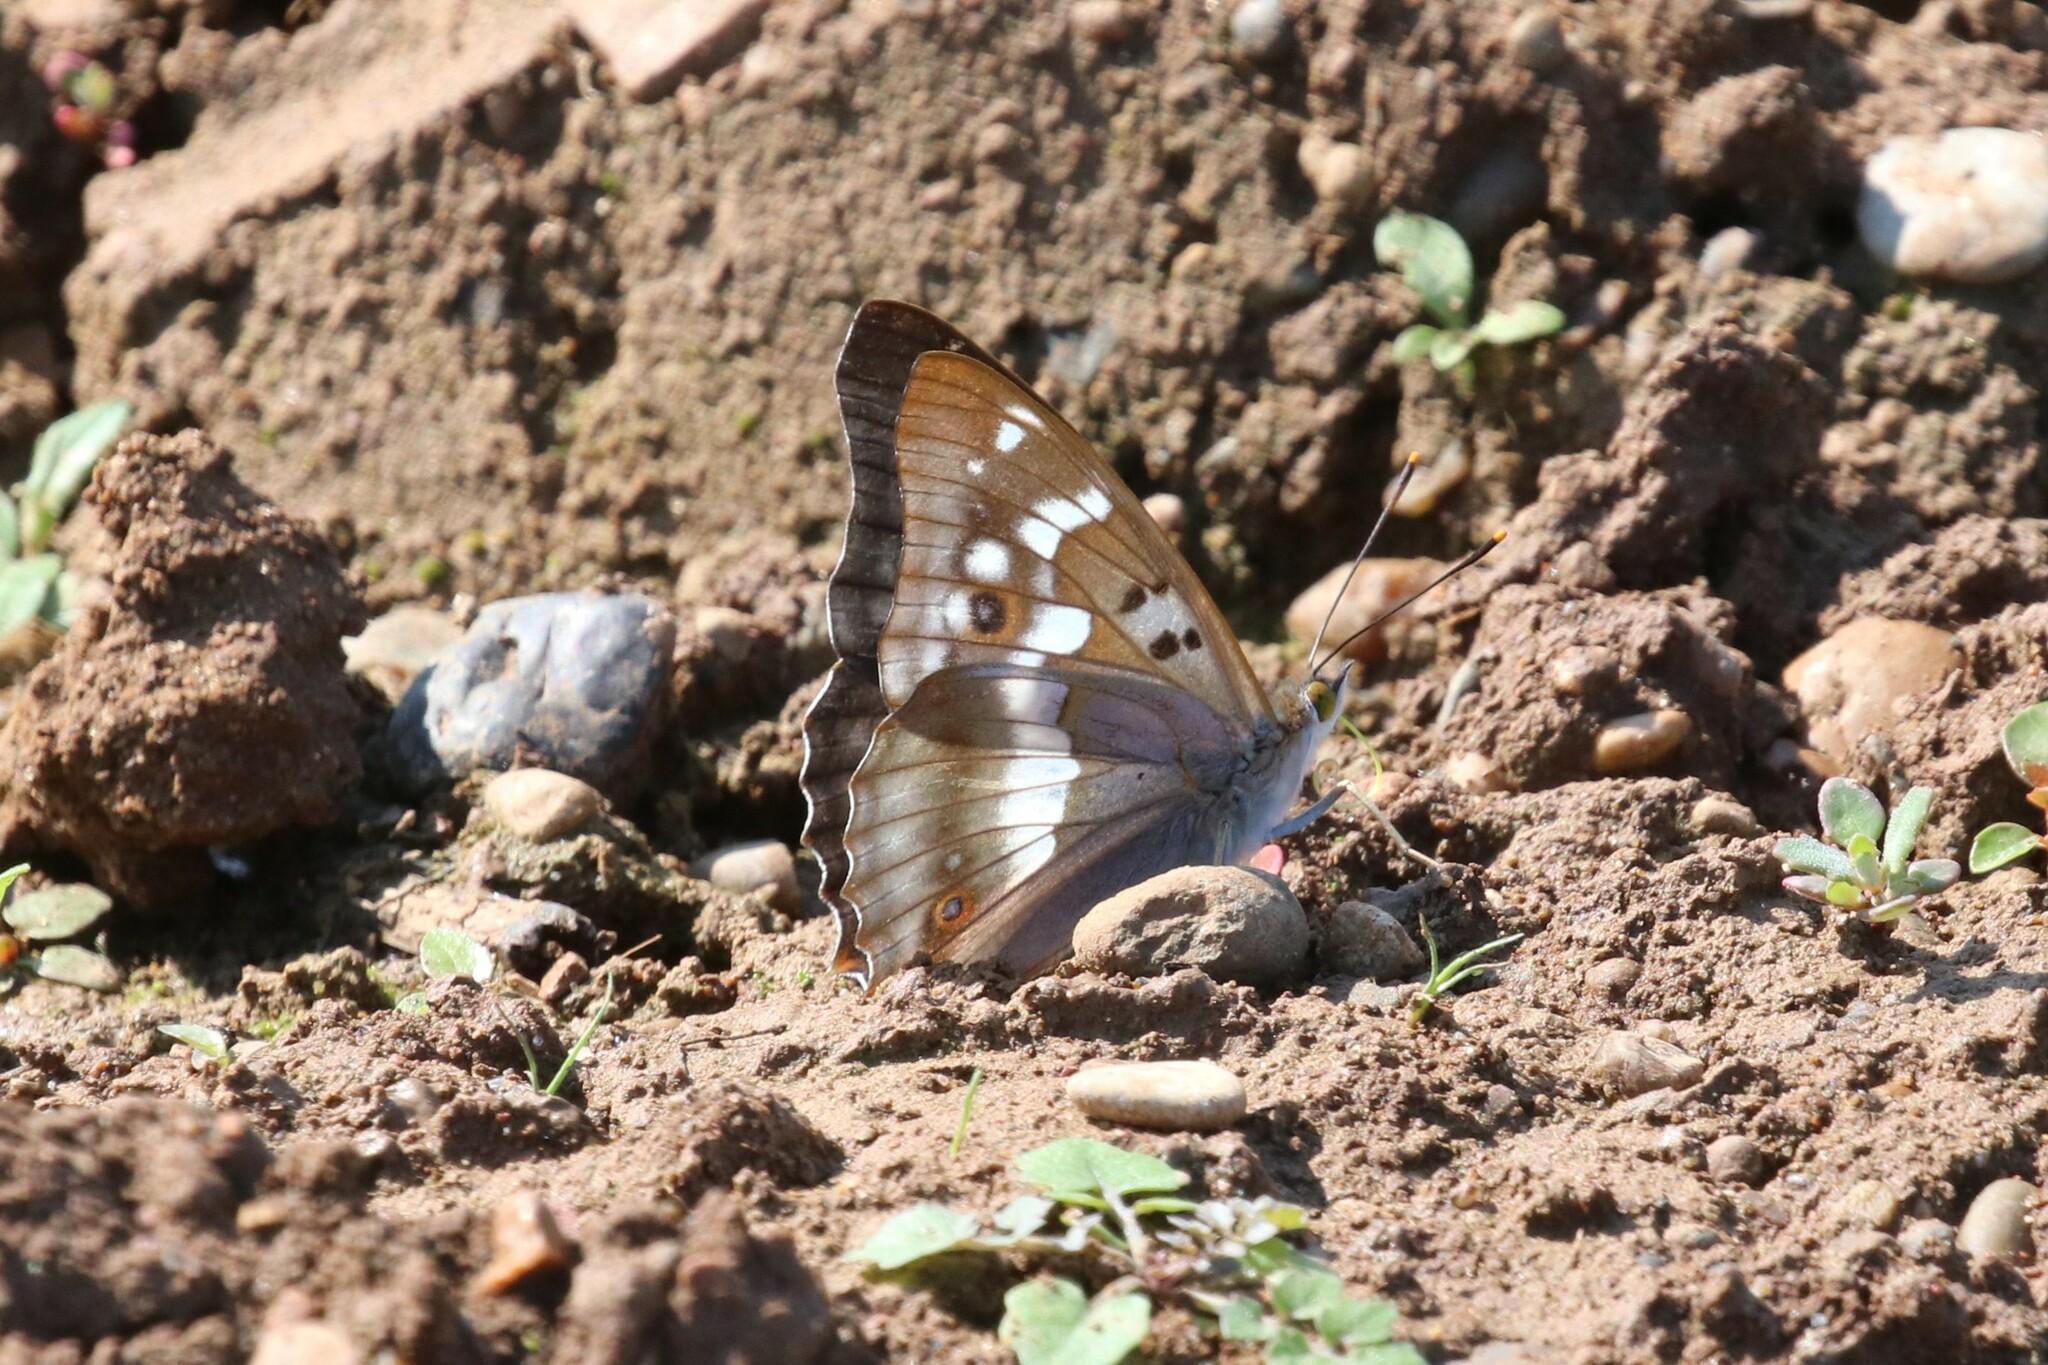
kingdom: Animalia
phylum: Arthropoda
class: Insecta
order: Lepidoptera
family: Nymphalidae
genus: Apatura
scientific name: Apatura ilia
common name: Lesser purple emperor
